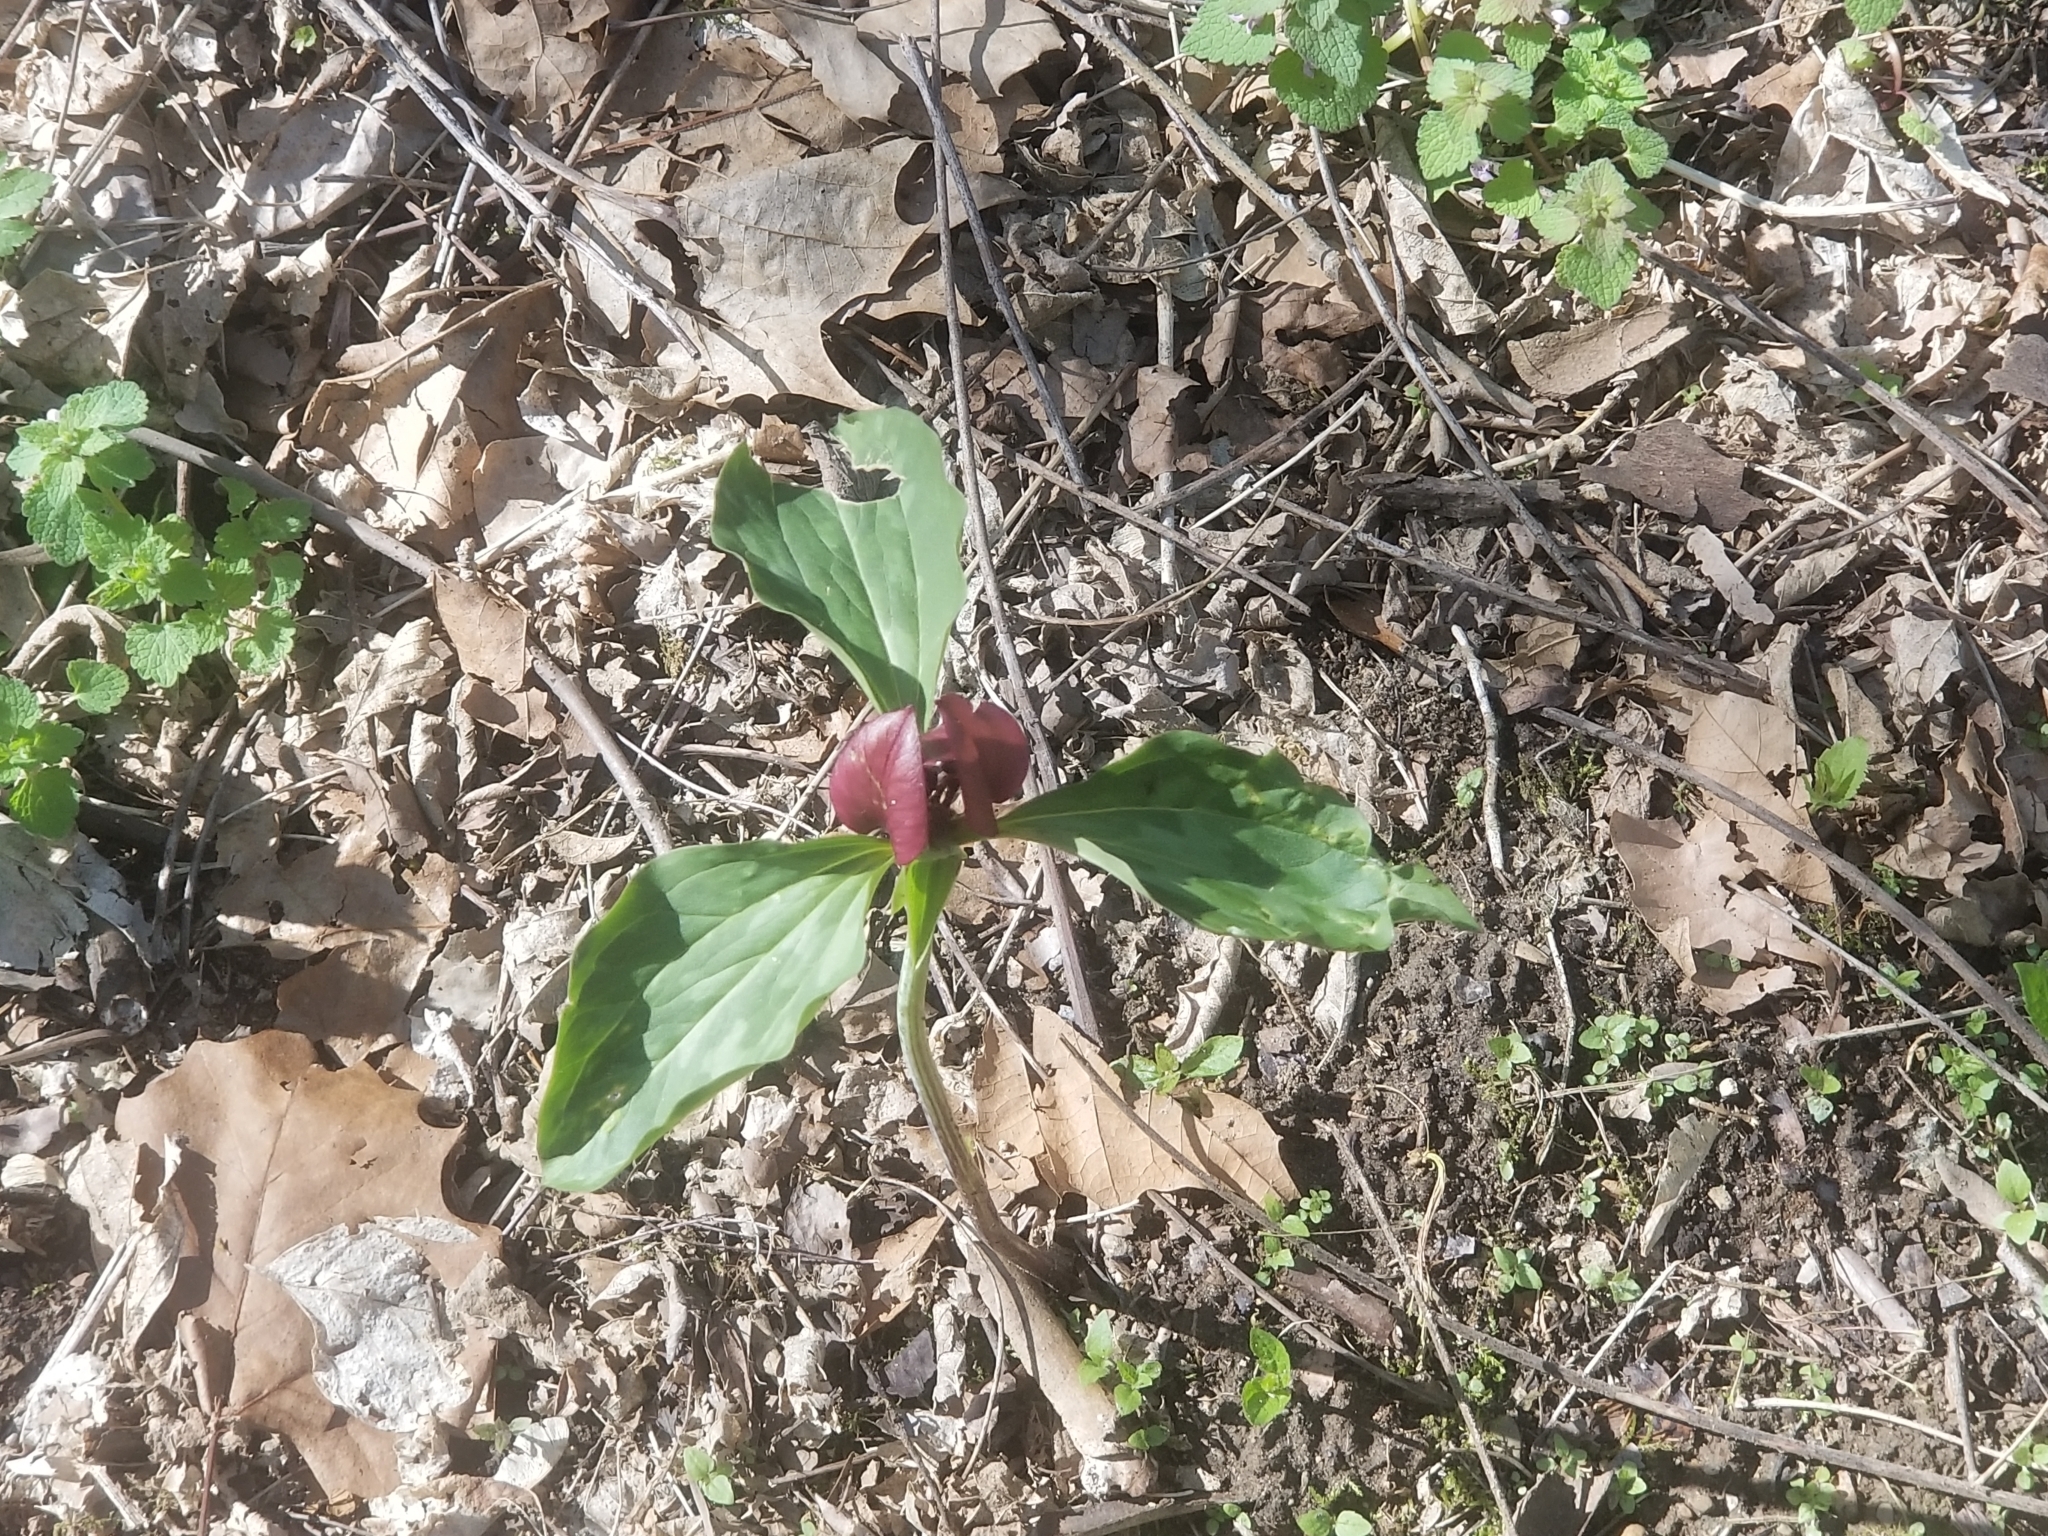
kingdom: Plantae
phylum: Tracheophyta
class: Liliopsida
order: Liliales
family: Melanthiaceae
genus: Trillium
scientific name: Trillium recurvatum
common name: Bloody butcher
